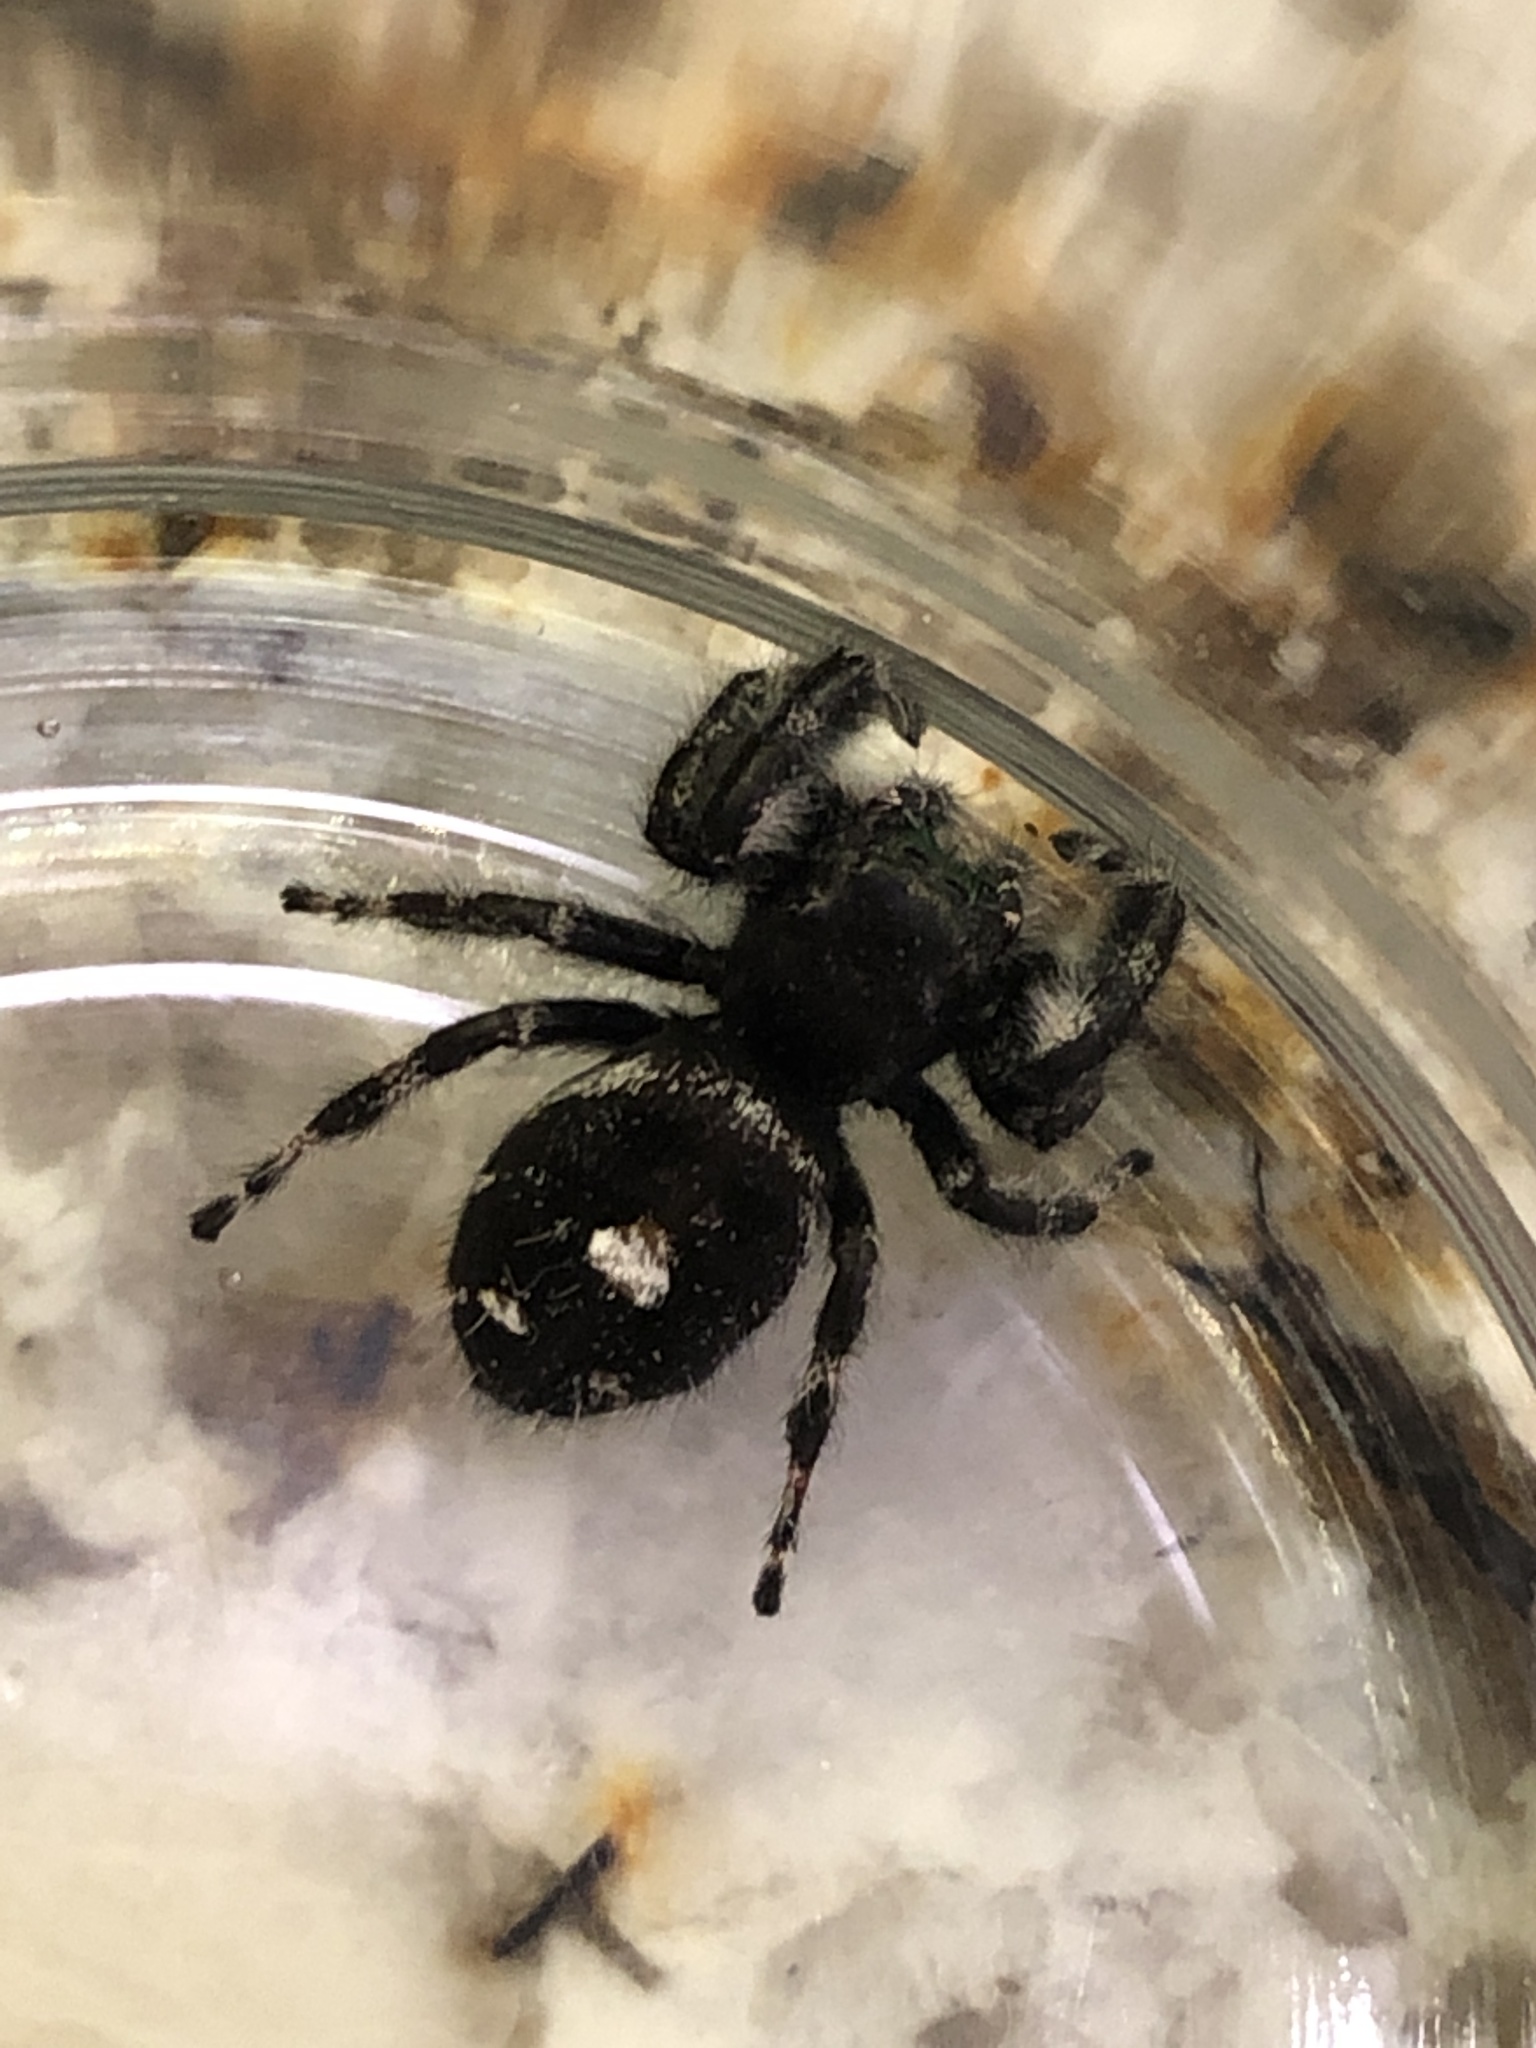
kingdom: Animalia
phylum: Arthropoda
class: Arachnida
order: Araneae
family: Salticidae
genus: Phidippus
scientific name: Phidippus audax
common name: Bold jumper
